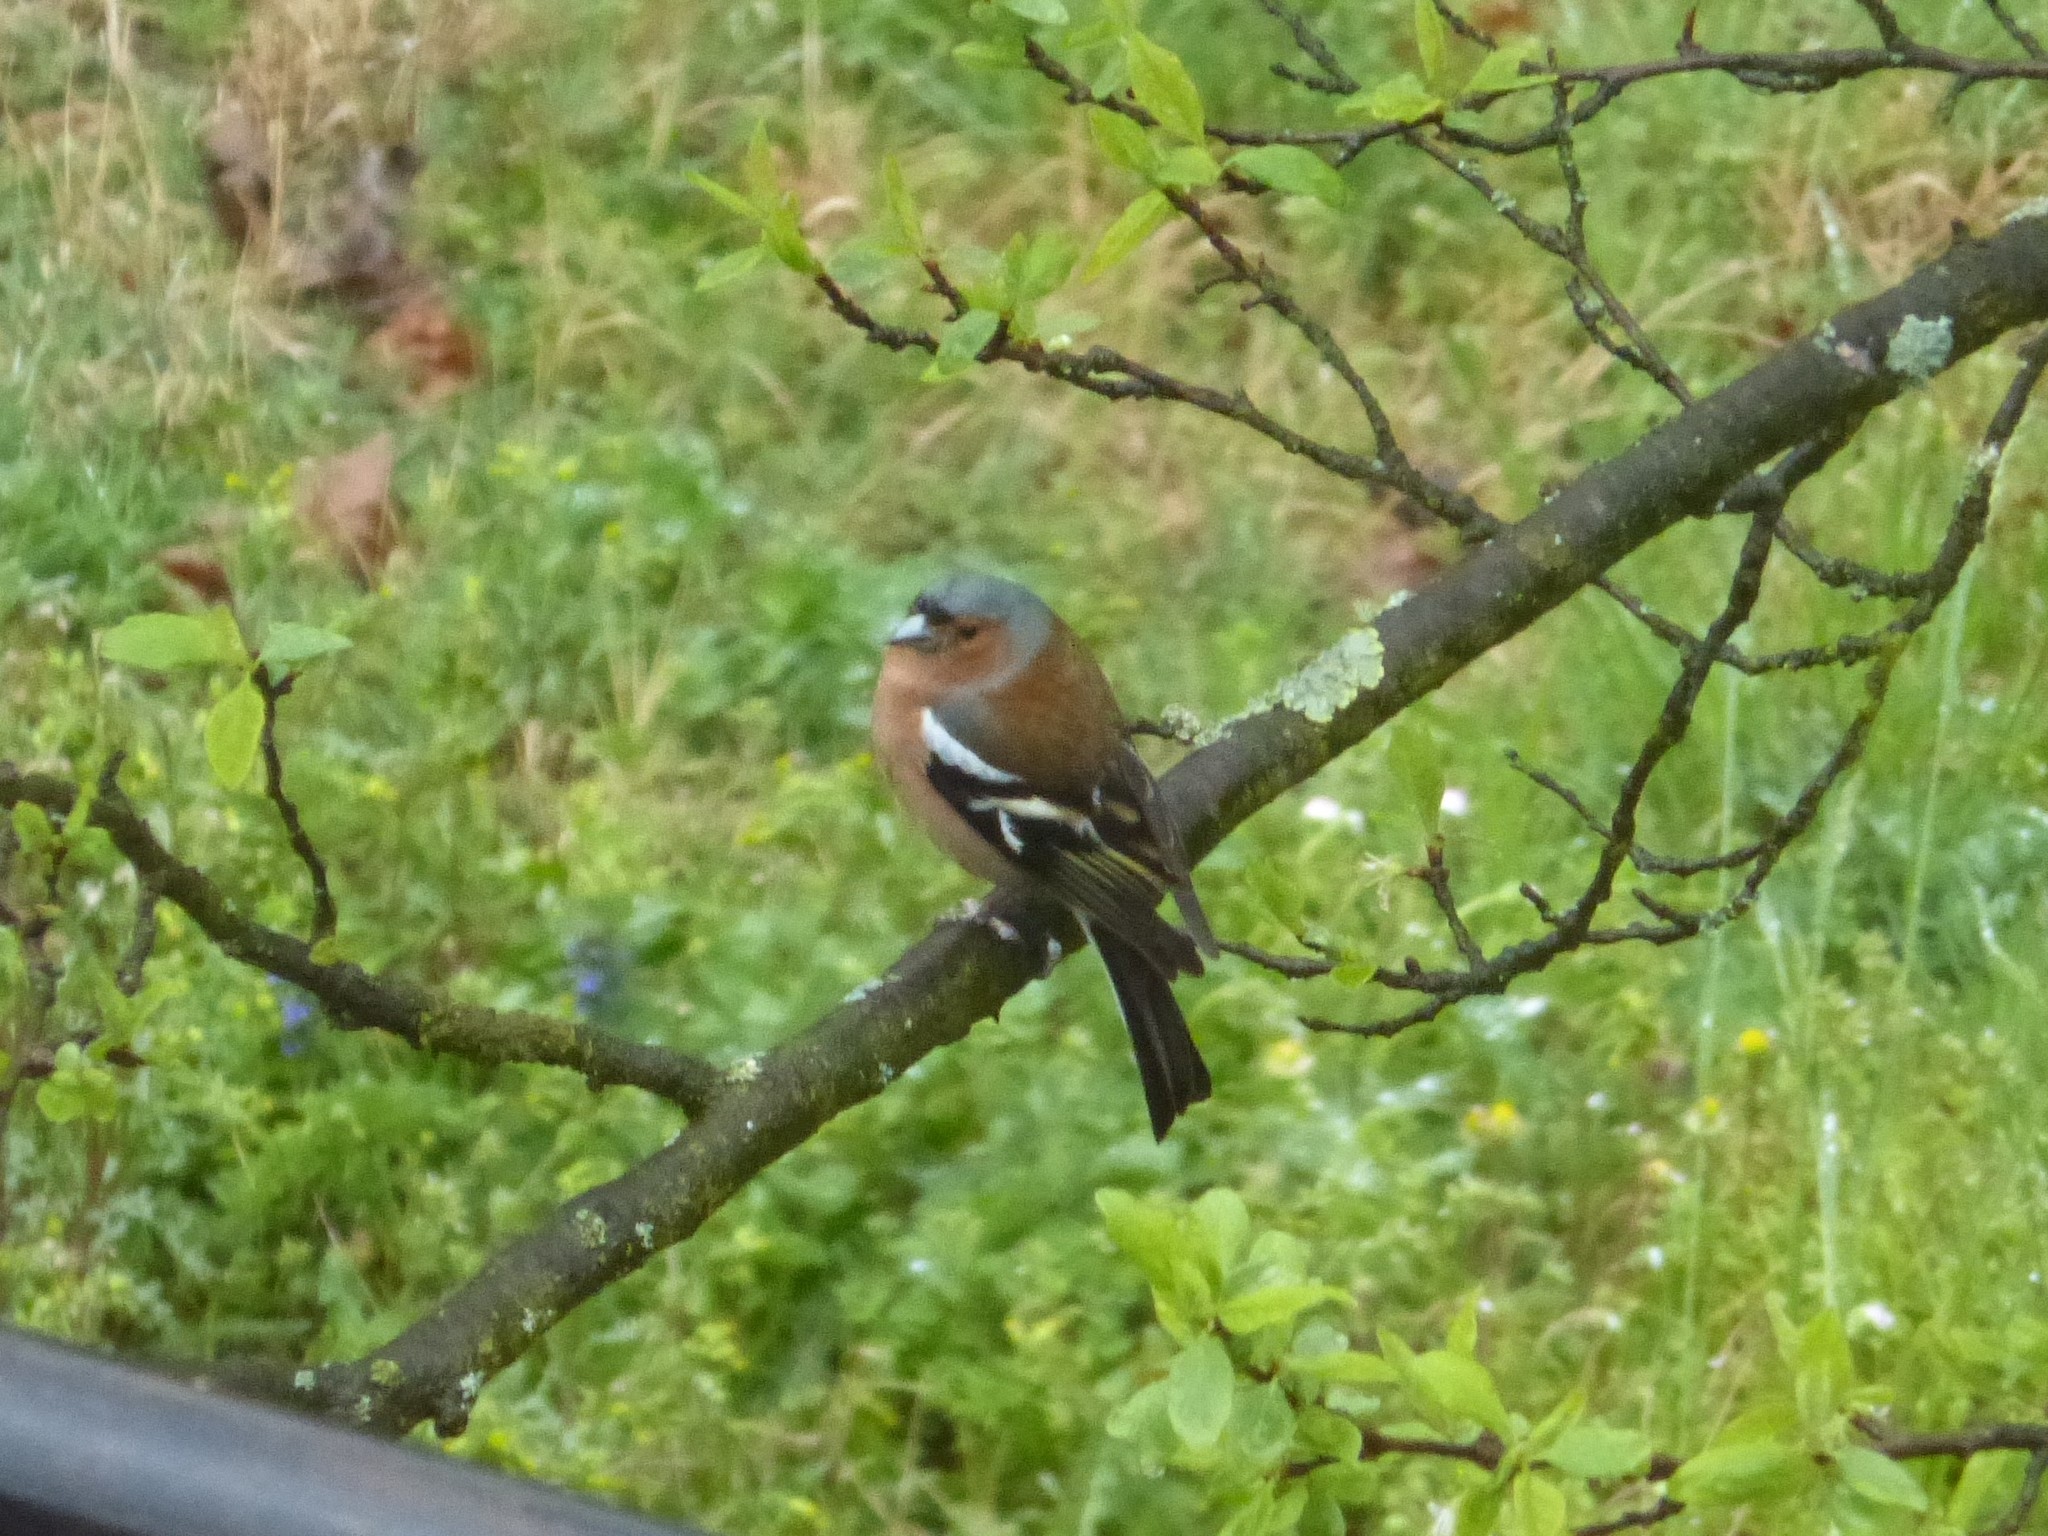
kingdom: Animalia
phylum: Chordata
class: Aves
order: Passeriformes
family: Fringillidae
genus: Fringilla
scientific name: Fringilla coelebs
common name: Common chaffinch
